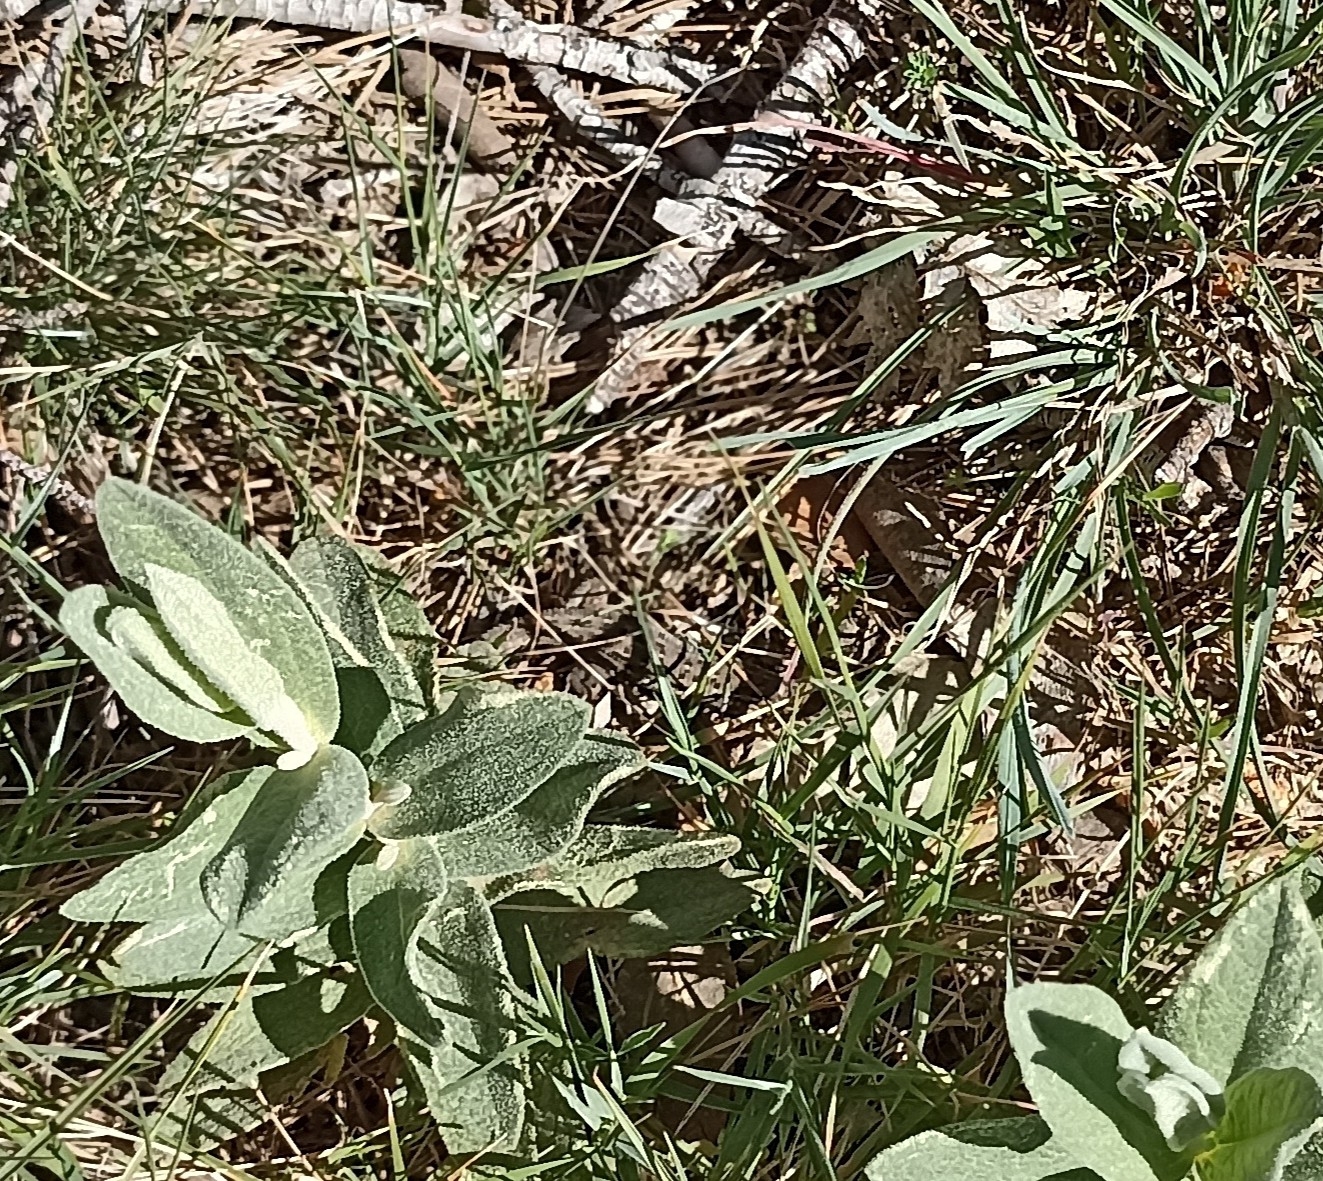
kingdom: Animalia
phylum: Chordata
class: Squamata
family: Lacertidae
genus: Psammodromus
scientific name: Psammodromus edwarsianus
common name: East iberian psammodromus
